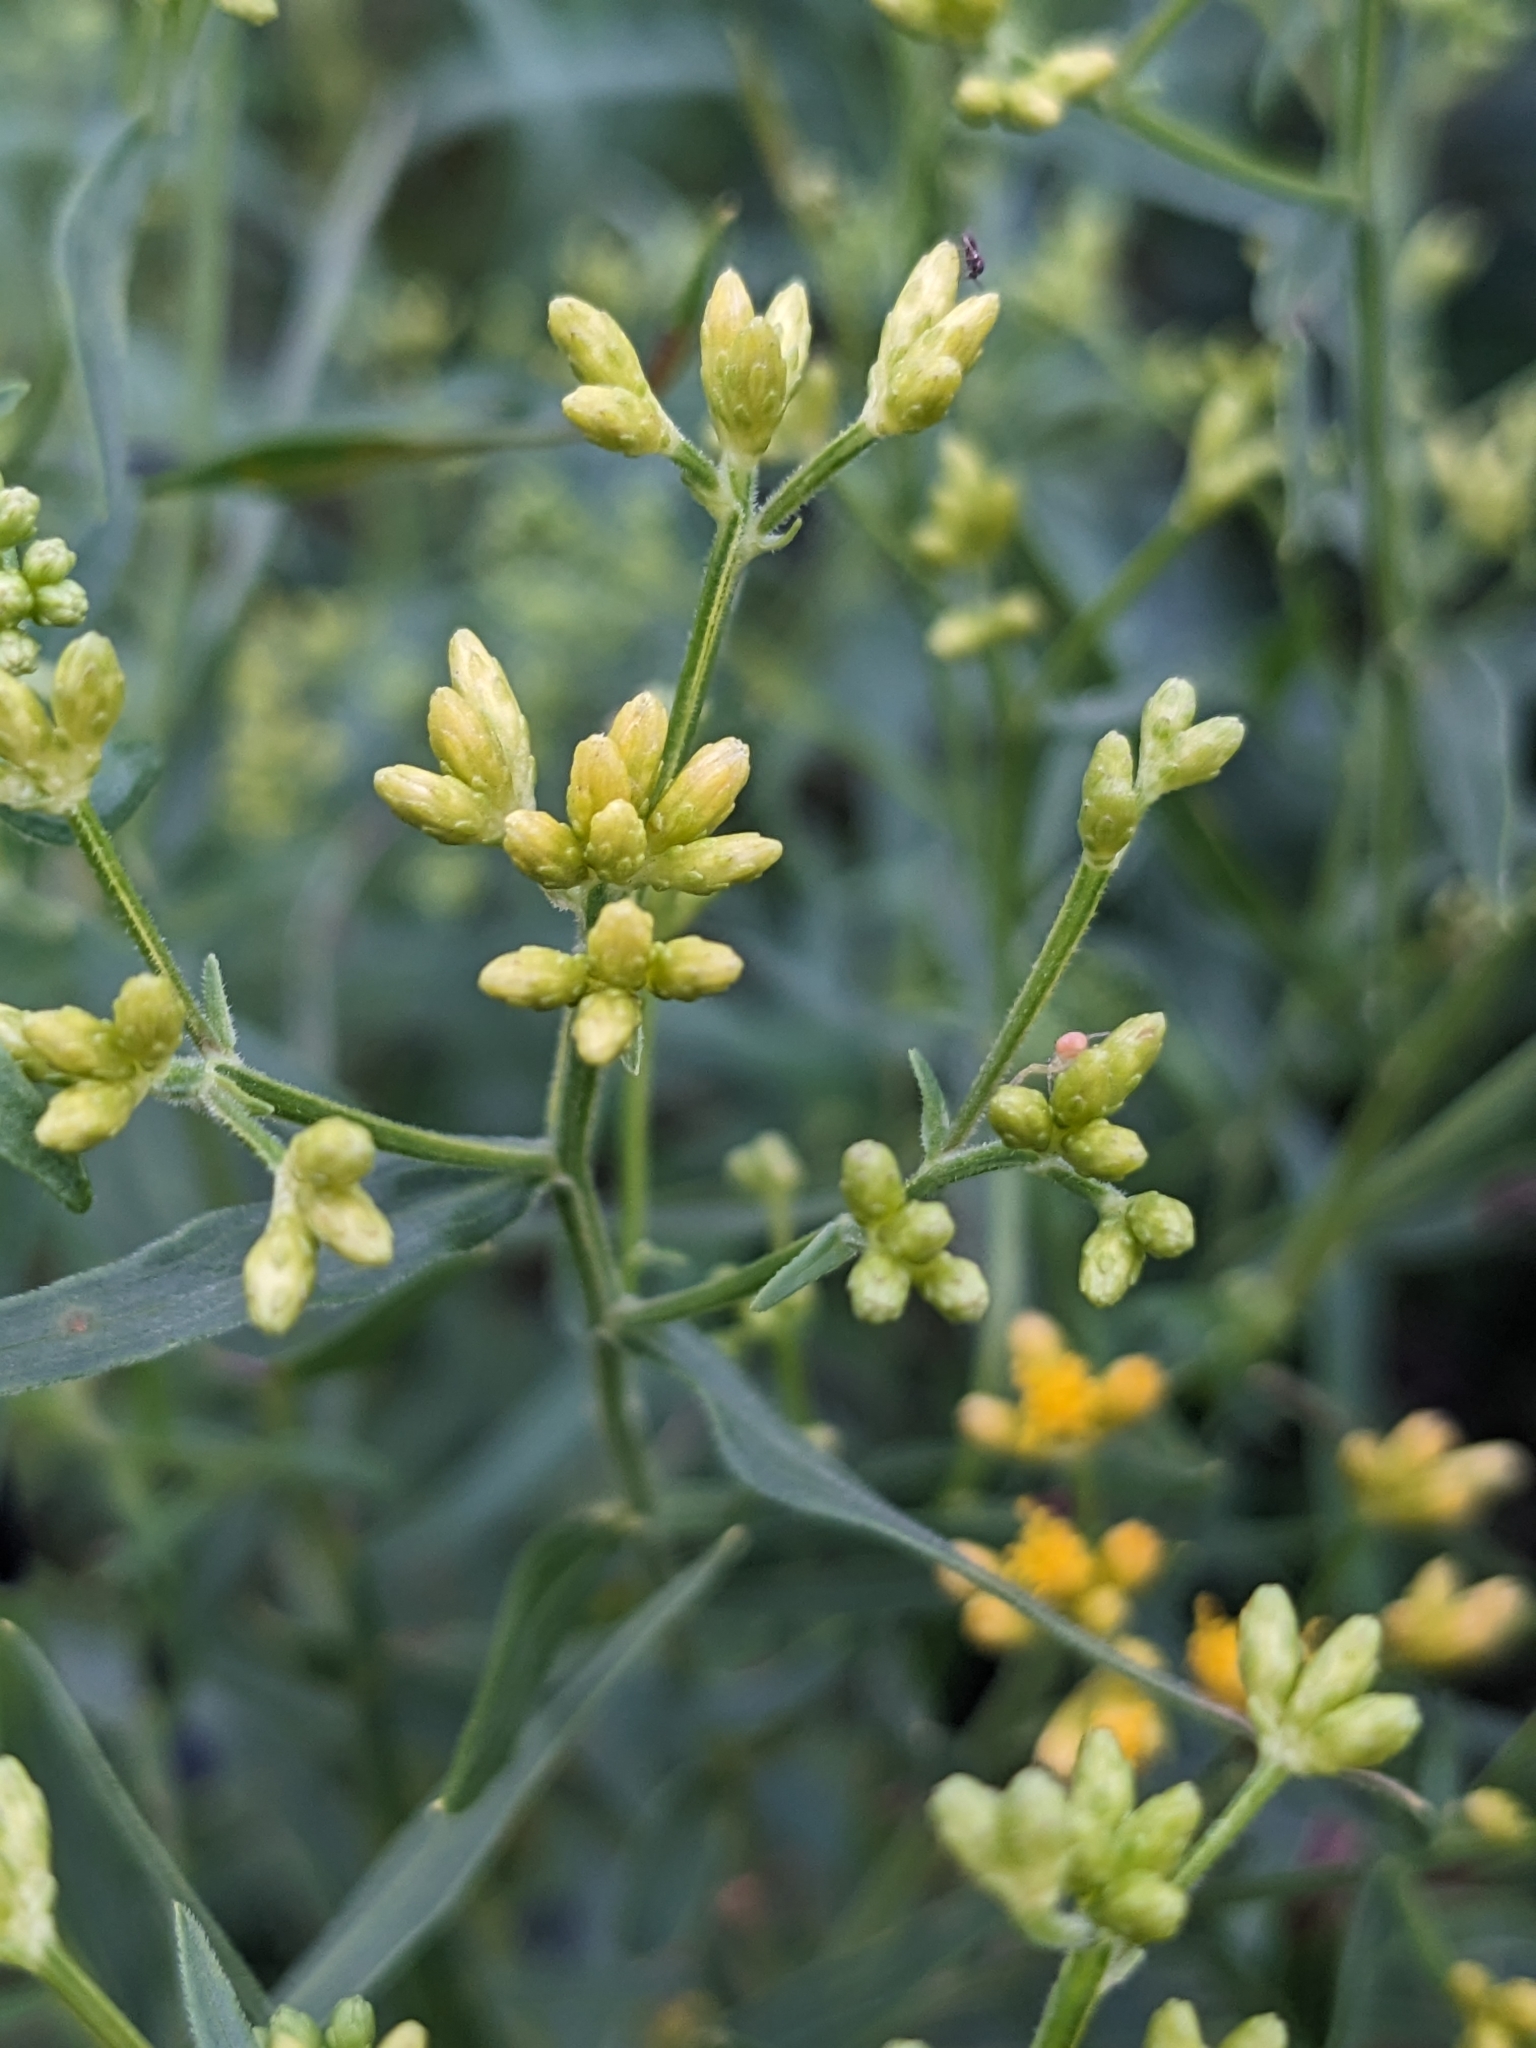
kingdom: Plantae
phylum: Tracheophyta
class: Magnoliopsida
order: Asterales
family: Asteraceae
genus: Euthamia
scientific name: Euthamia graminifolia
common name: Common goldentop
